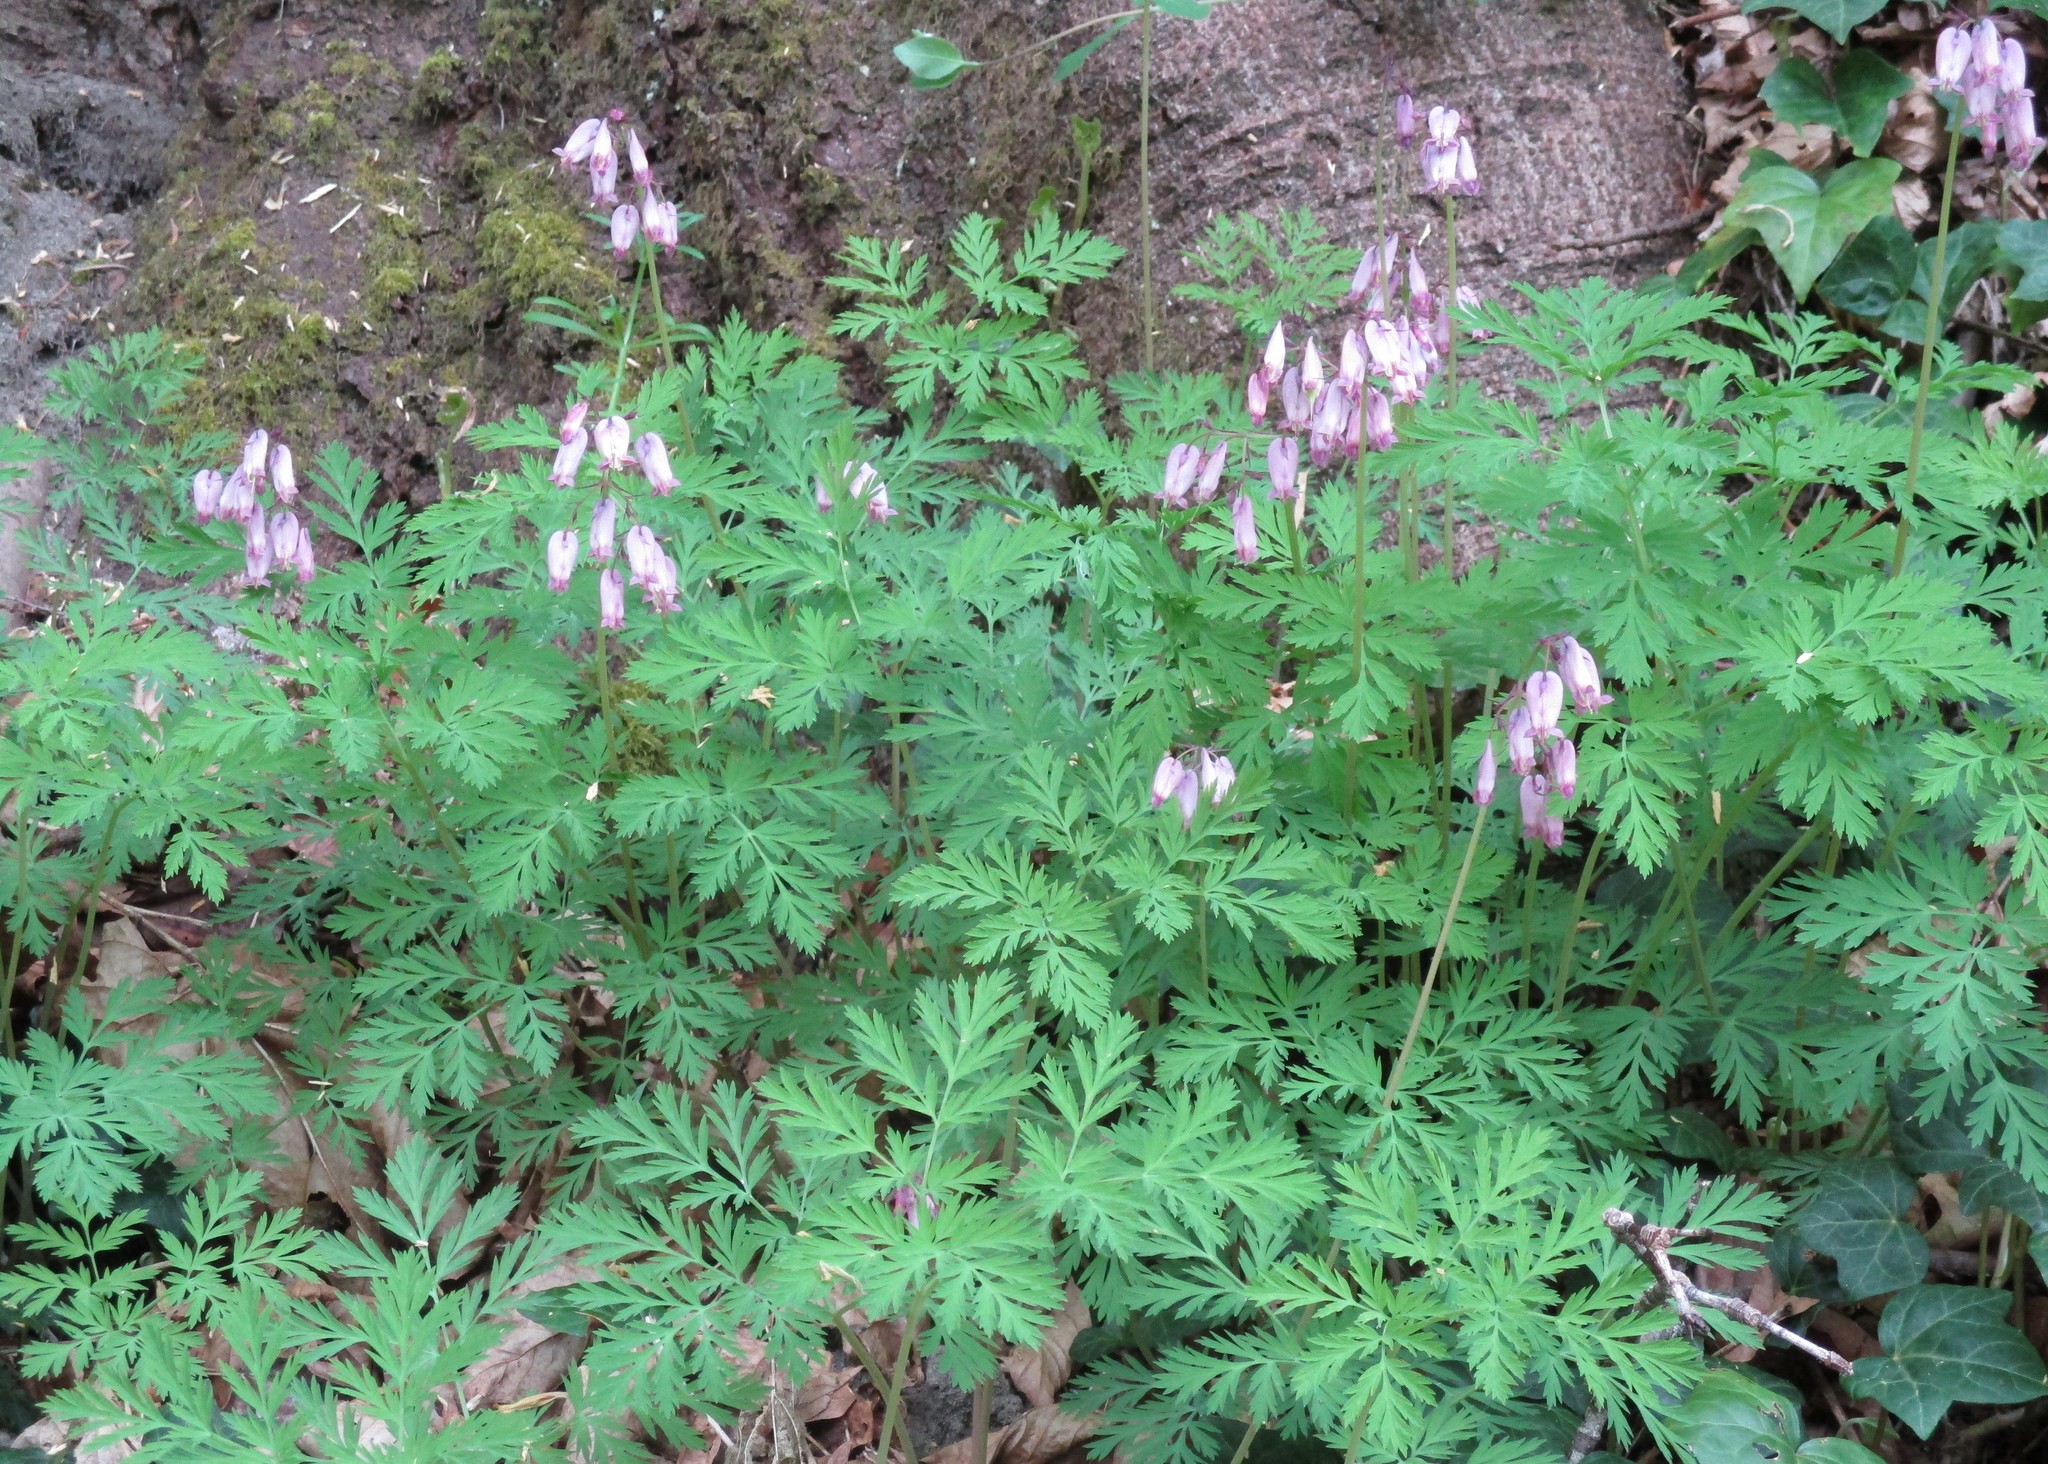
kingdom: Plantae
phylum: Tracheophyta
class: Magnoliopsida
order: Ranunculales
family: Papaveraceae
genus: Dicentra
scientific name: Dicentra formosa
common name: Bleeding-heart
